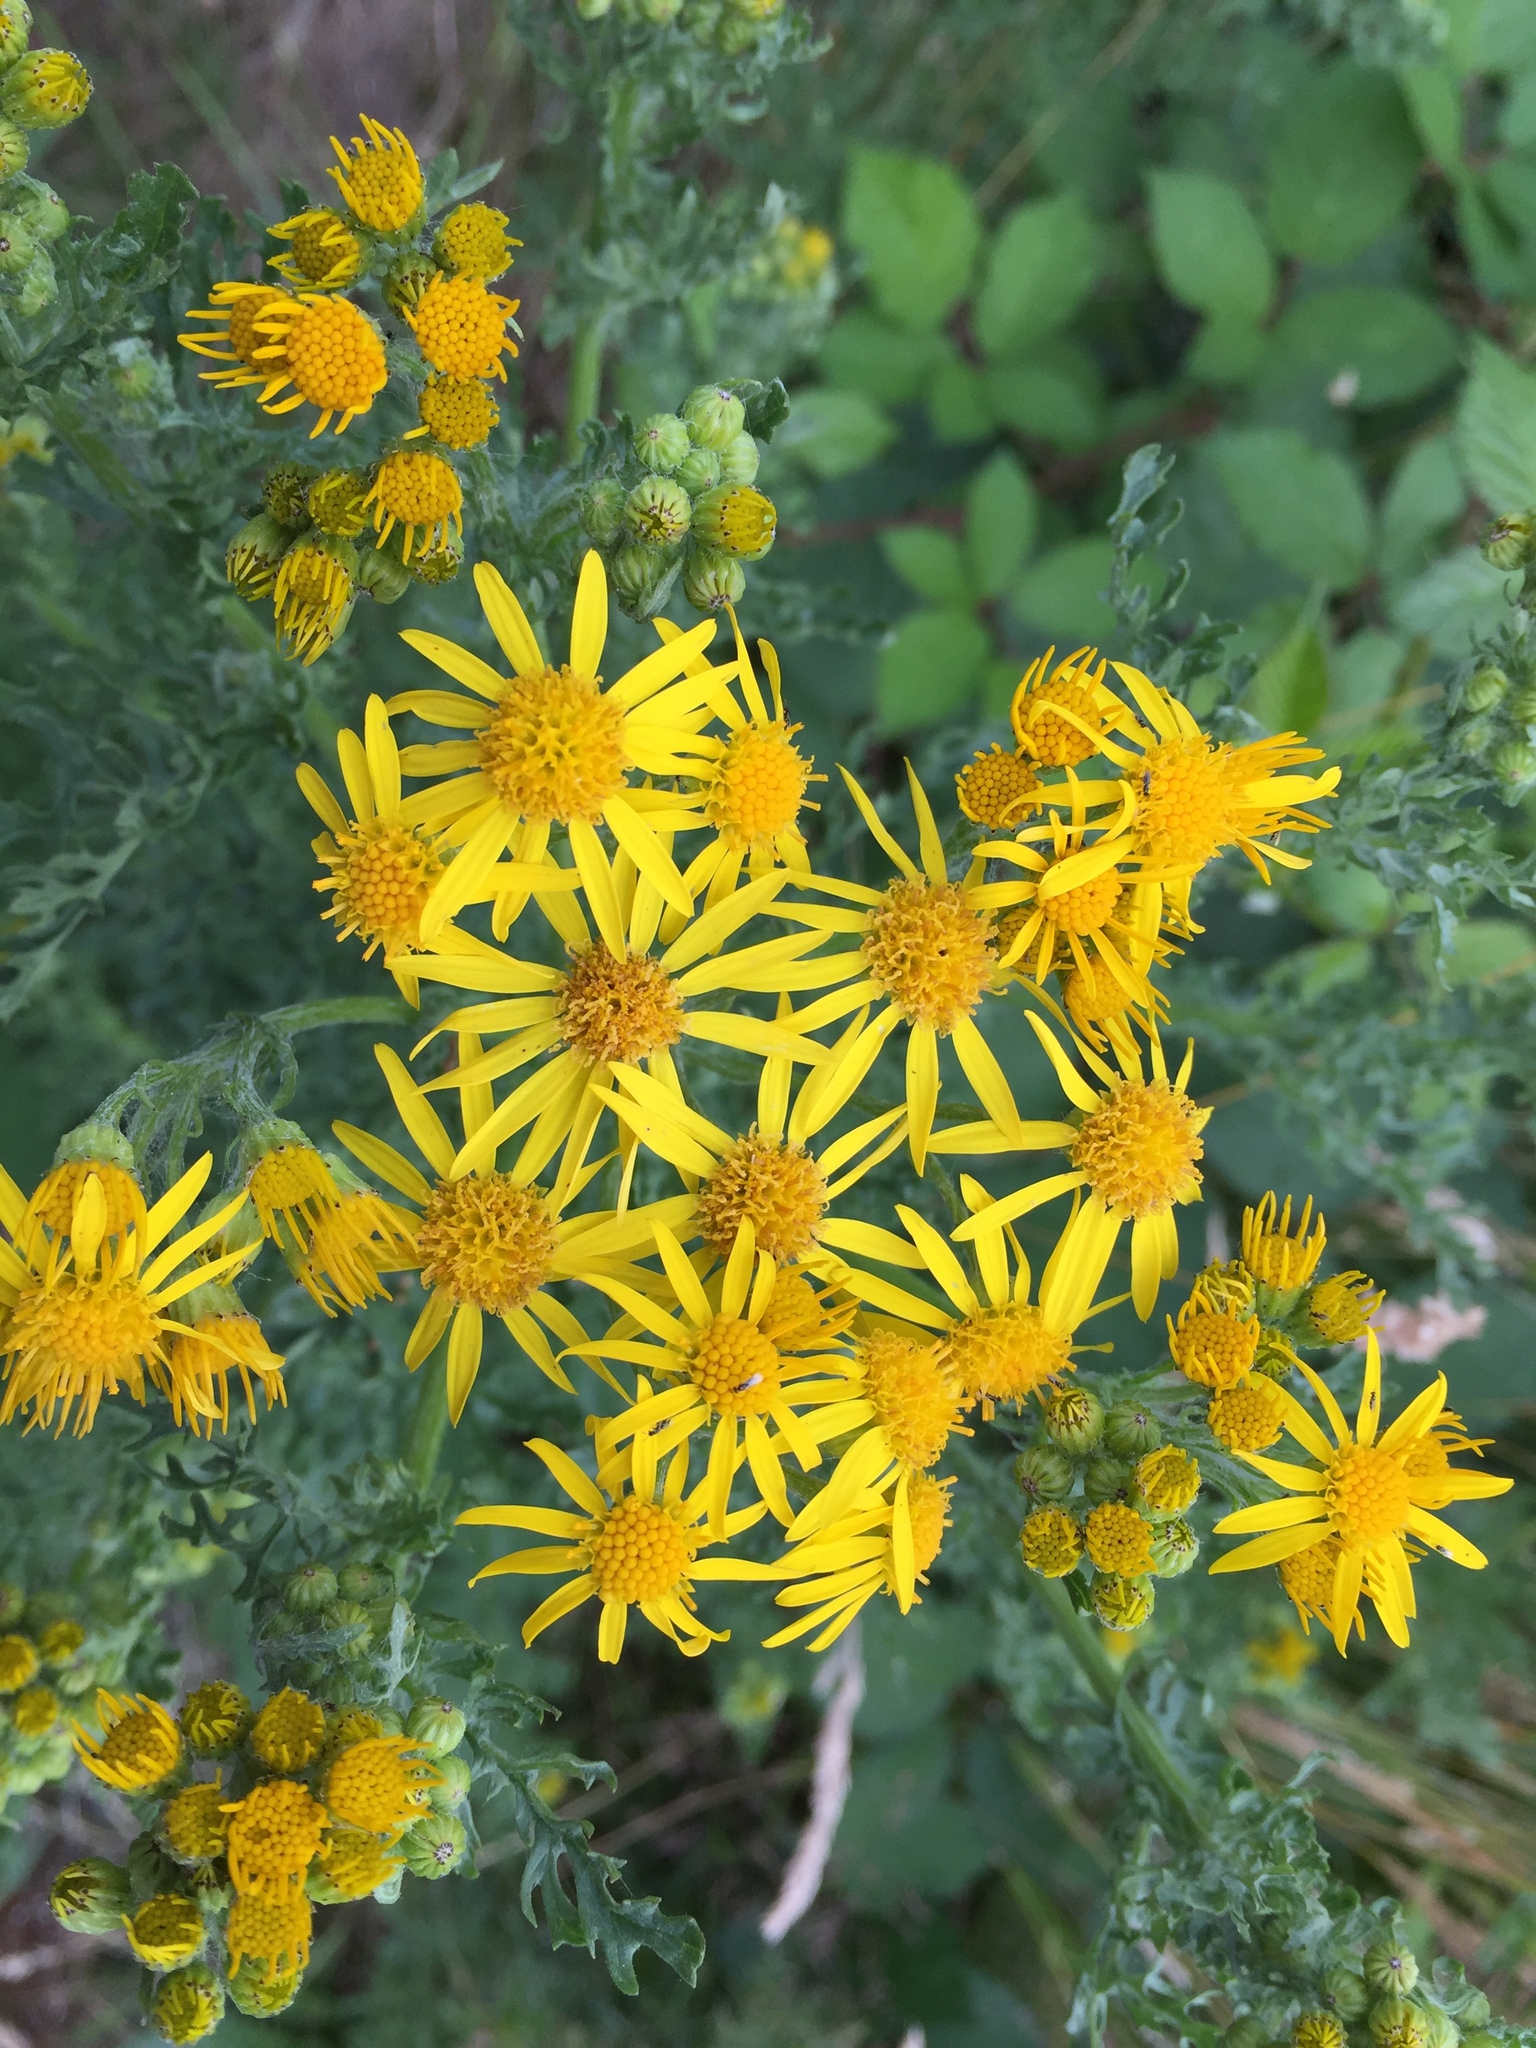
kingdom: Plantae
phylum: Tracheophyta
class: Magnoliopsida
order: Asterales
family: Asteraceae
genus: Jacobaea
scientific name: Jacobaea vulgaris
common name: Stinking willie
